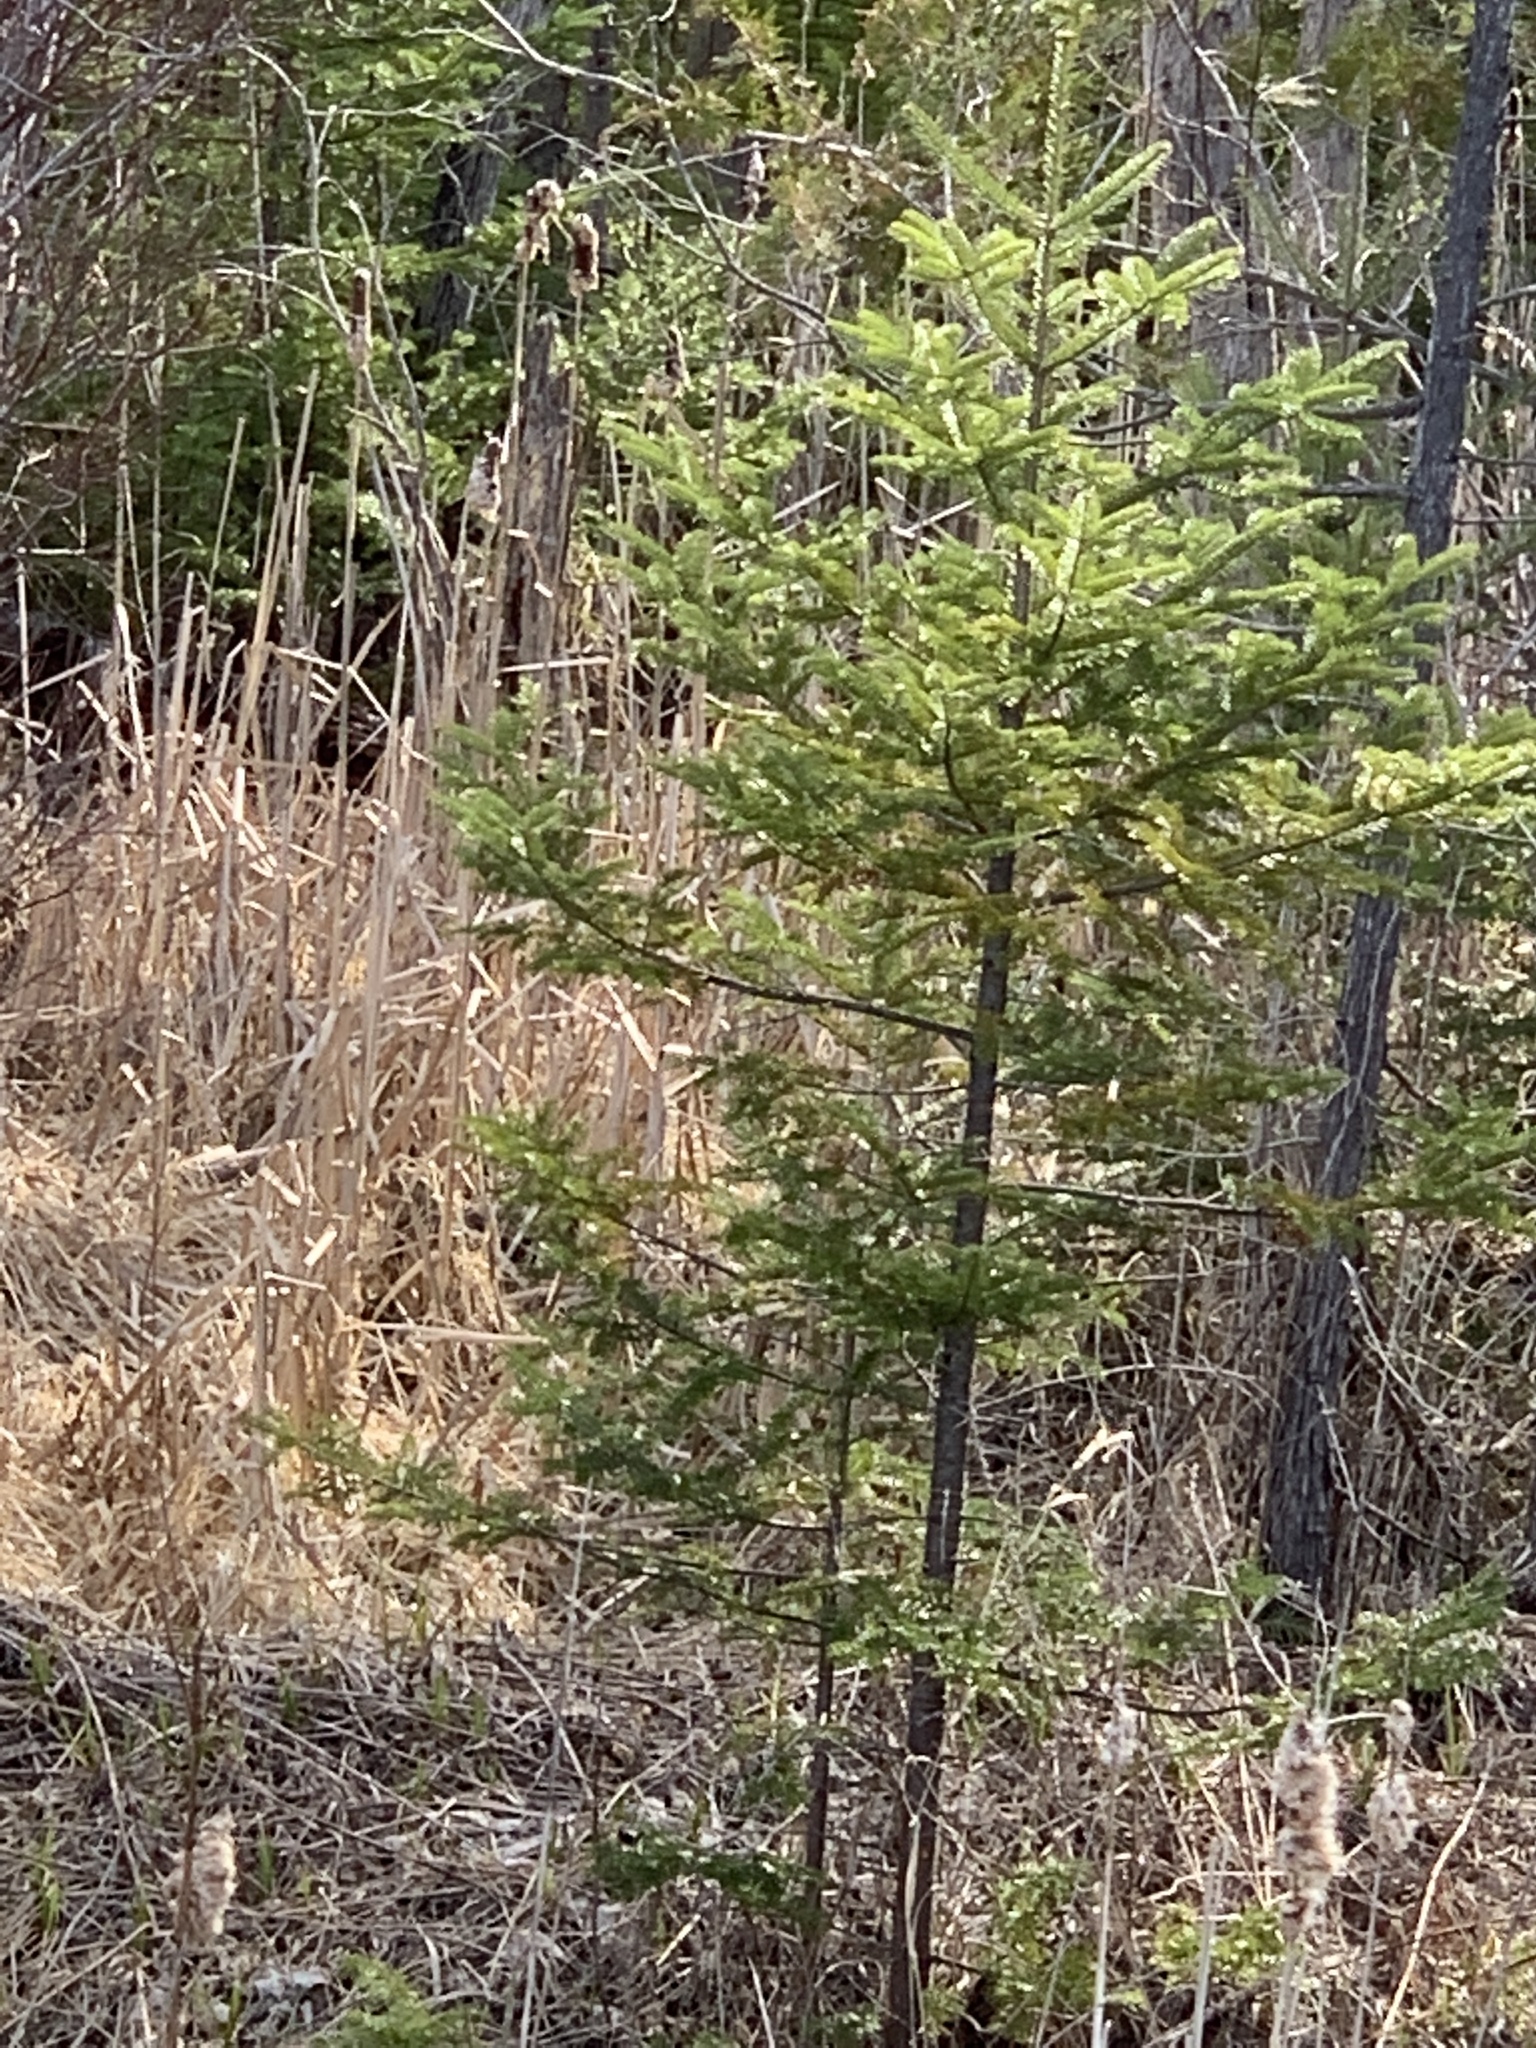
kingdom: Plantae
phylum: Tracheophyta
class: Pinopsida
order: Pinales
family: Pinaceae
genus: Abies
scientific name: Abies balsamea
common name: Balsam fir
